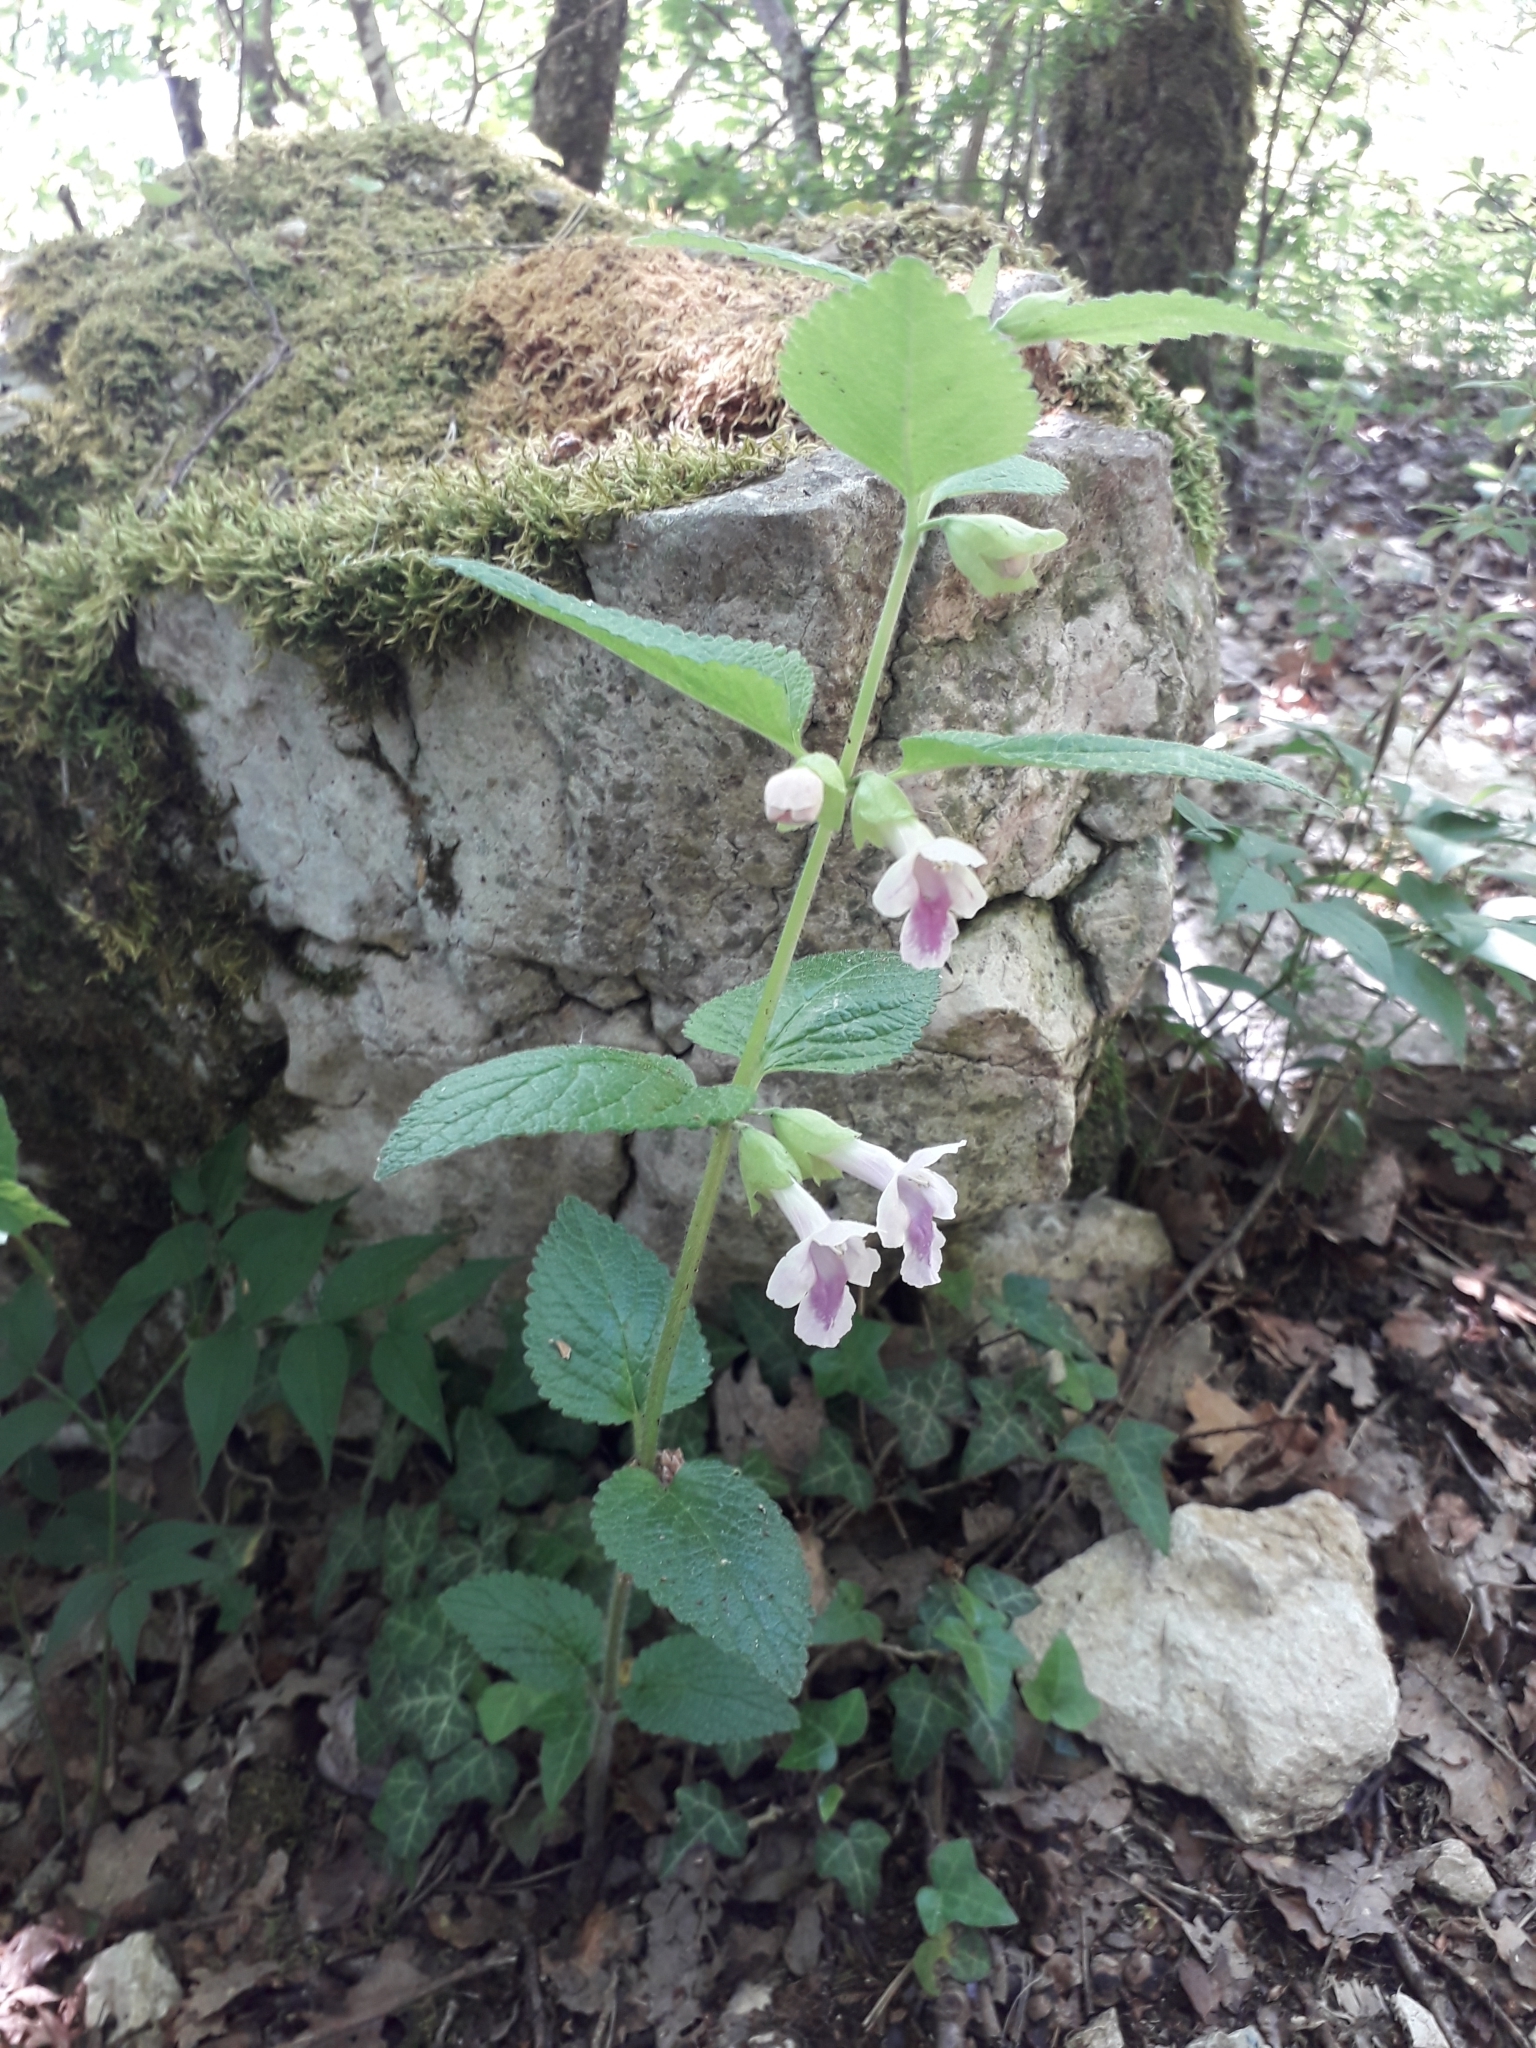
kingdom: Plantae
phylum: Tracheophyta
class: Magnoliopsida
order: Lamiales
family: Lamiaceae
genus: Melittis
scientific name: Melittis melissophyllum
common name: Bastard balm
